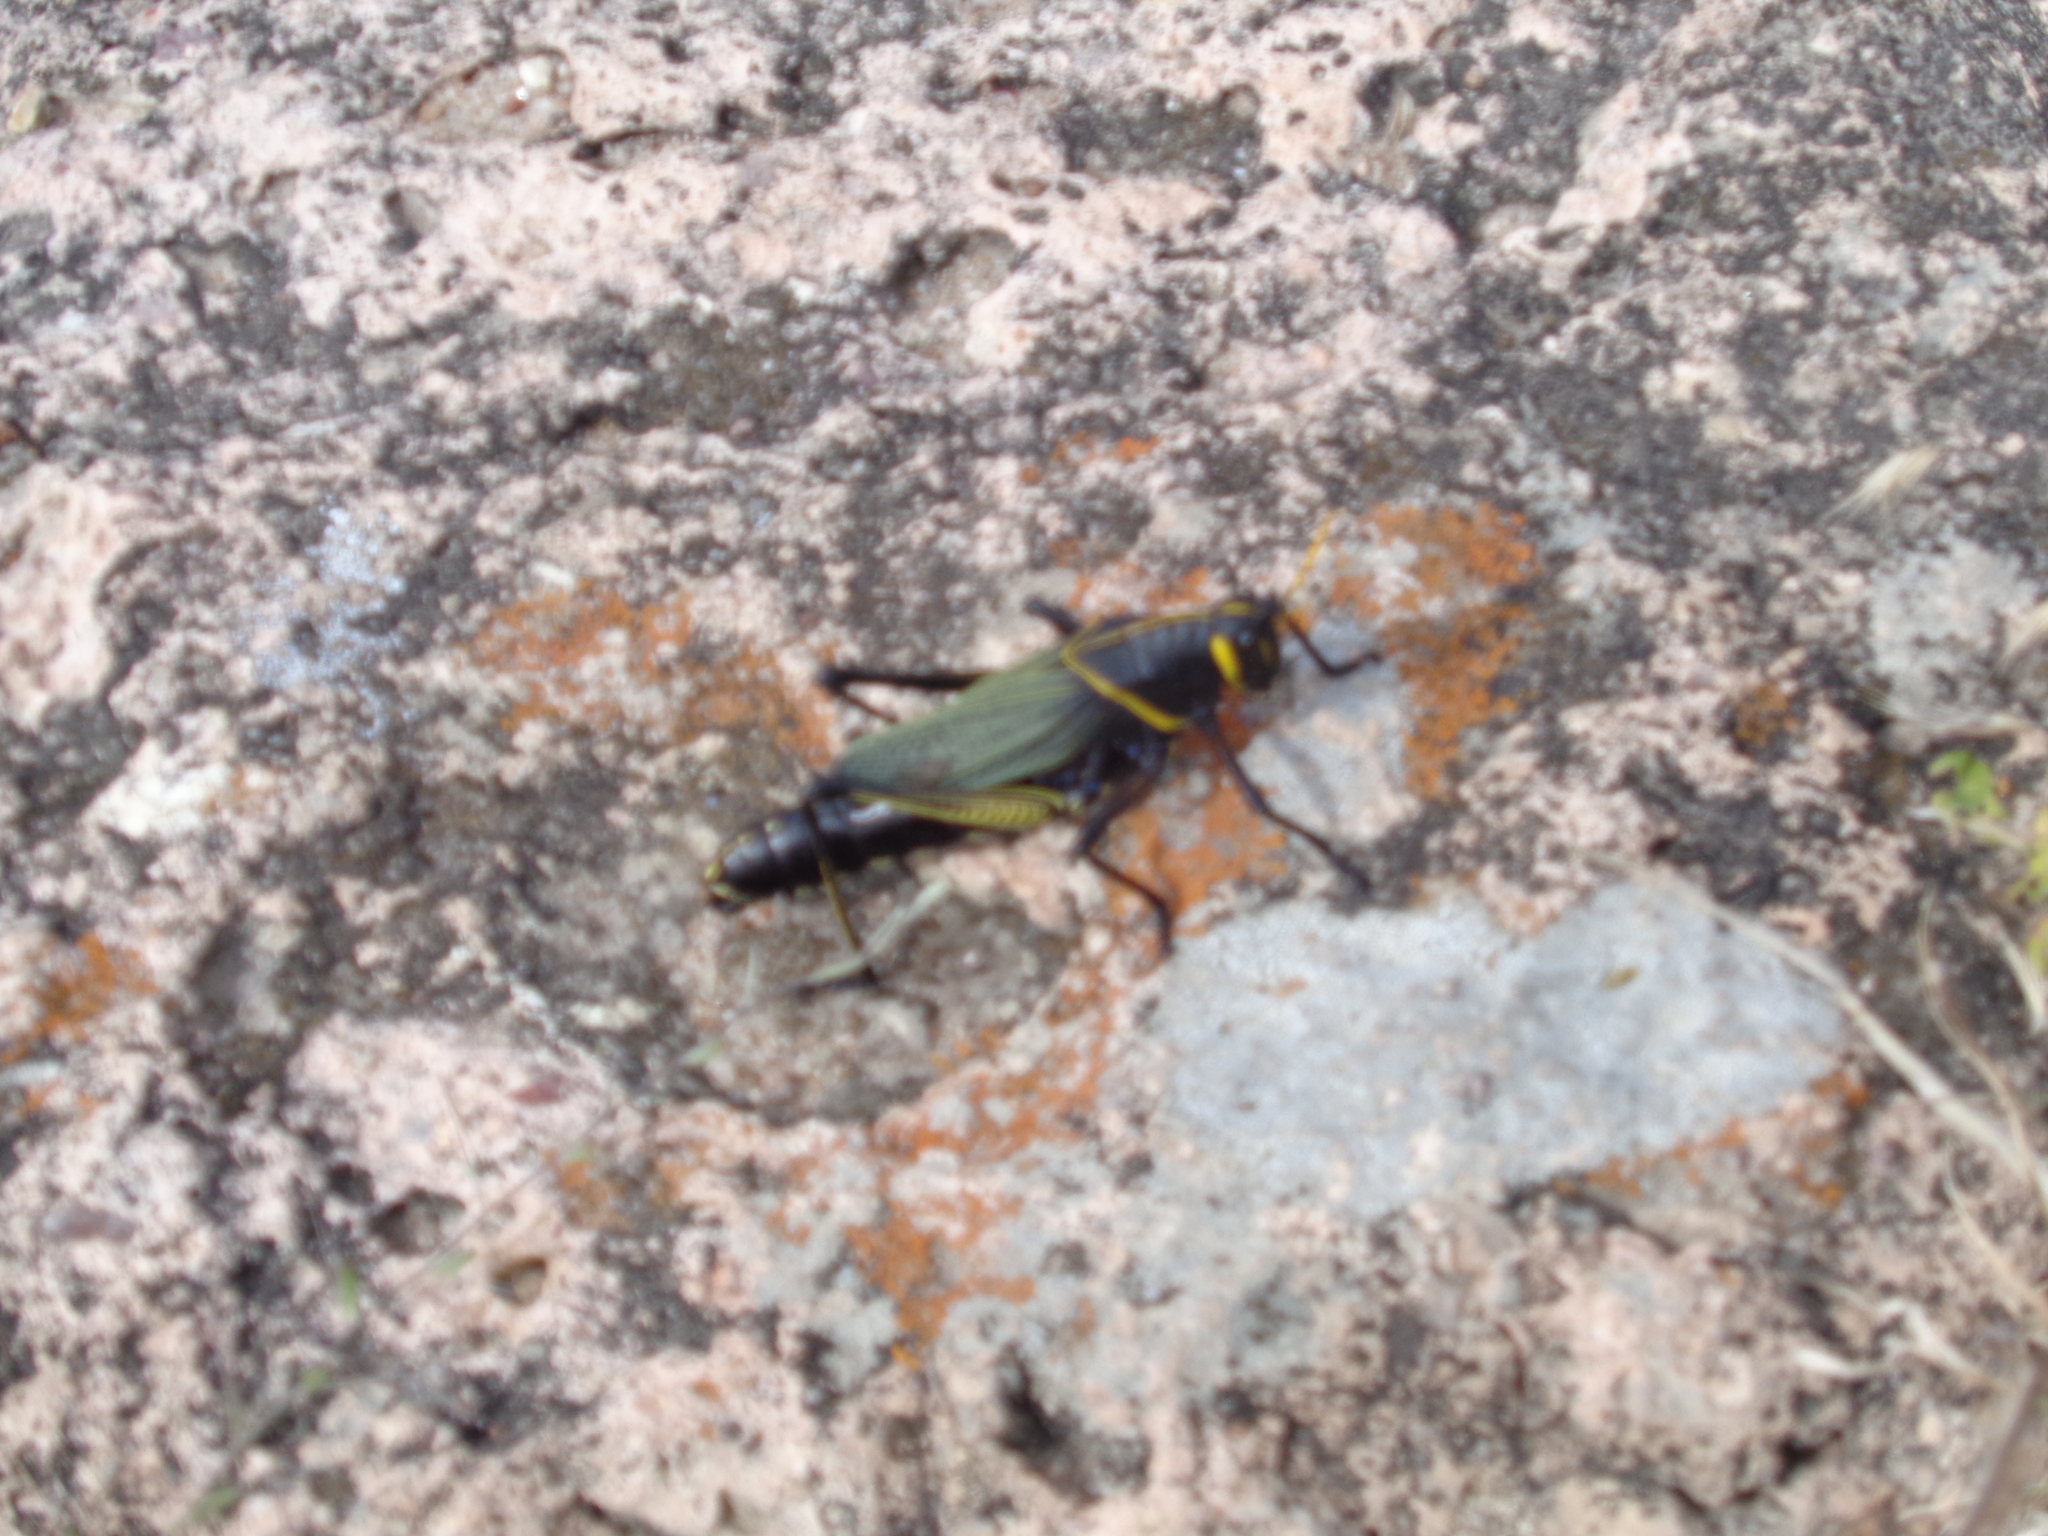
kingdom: Animalia
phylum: Arthropoda
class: Insecta
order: Orthoptera
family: Romaleidae
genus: Romalea
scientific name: Romalea
